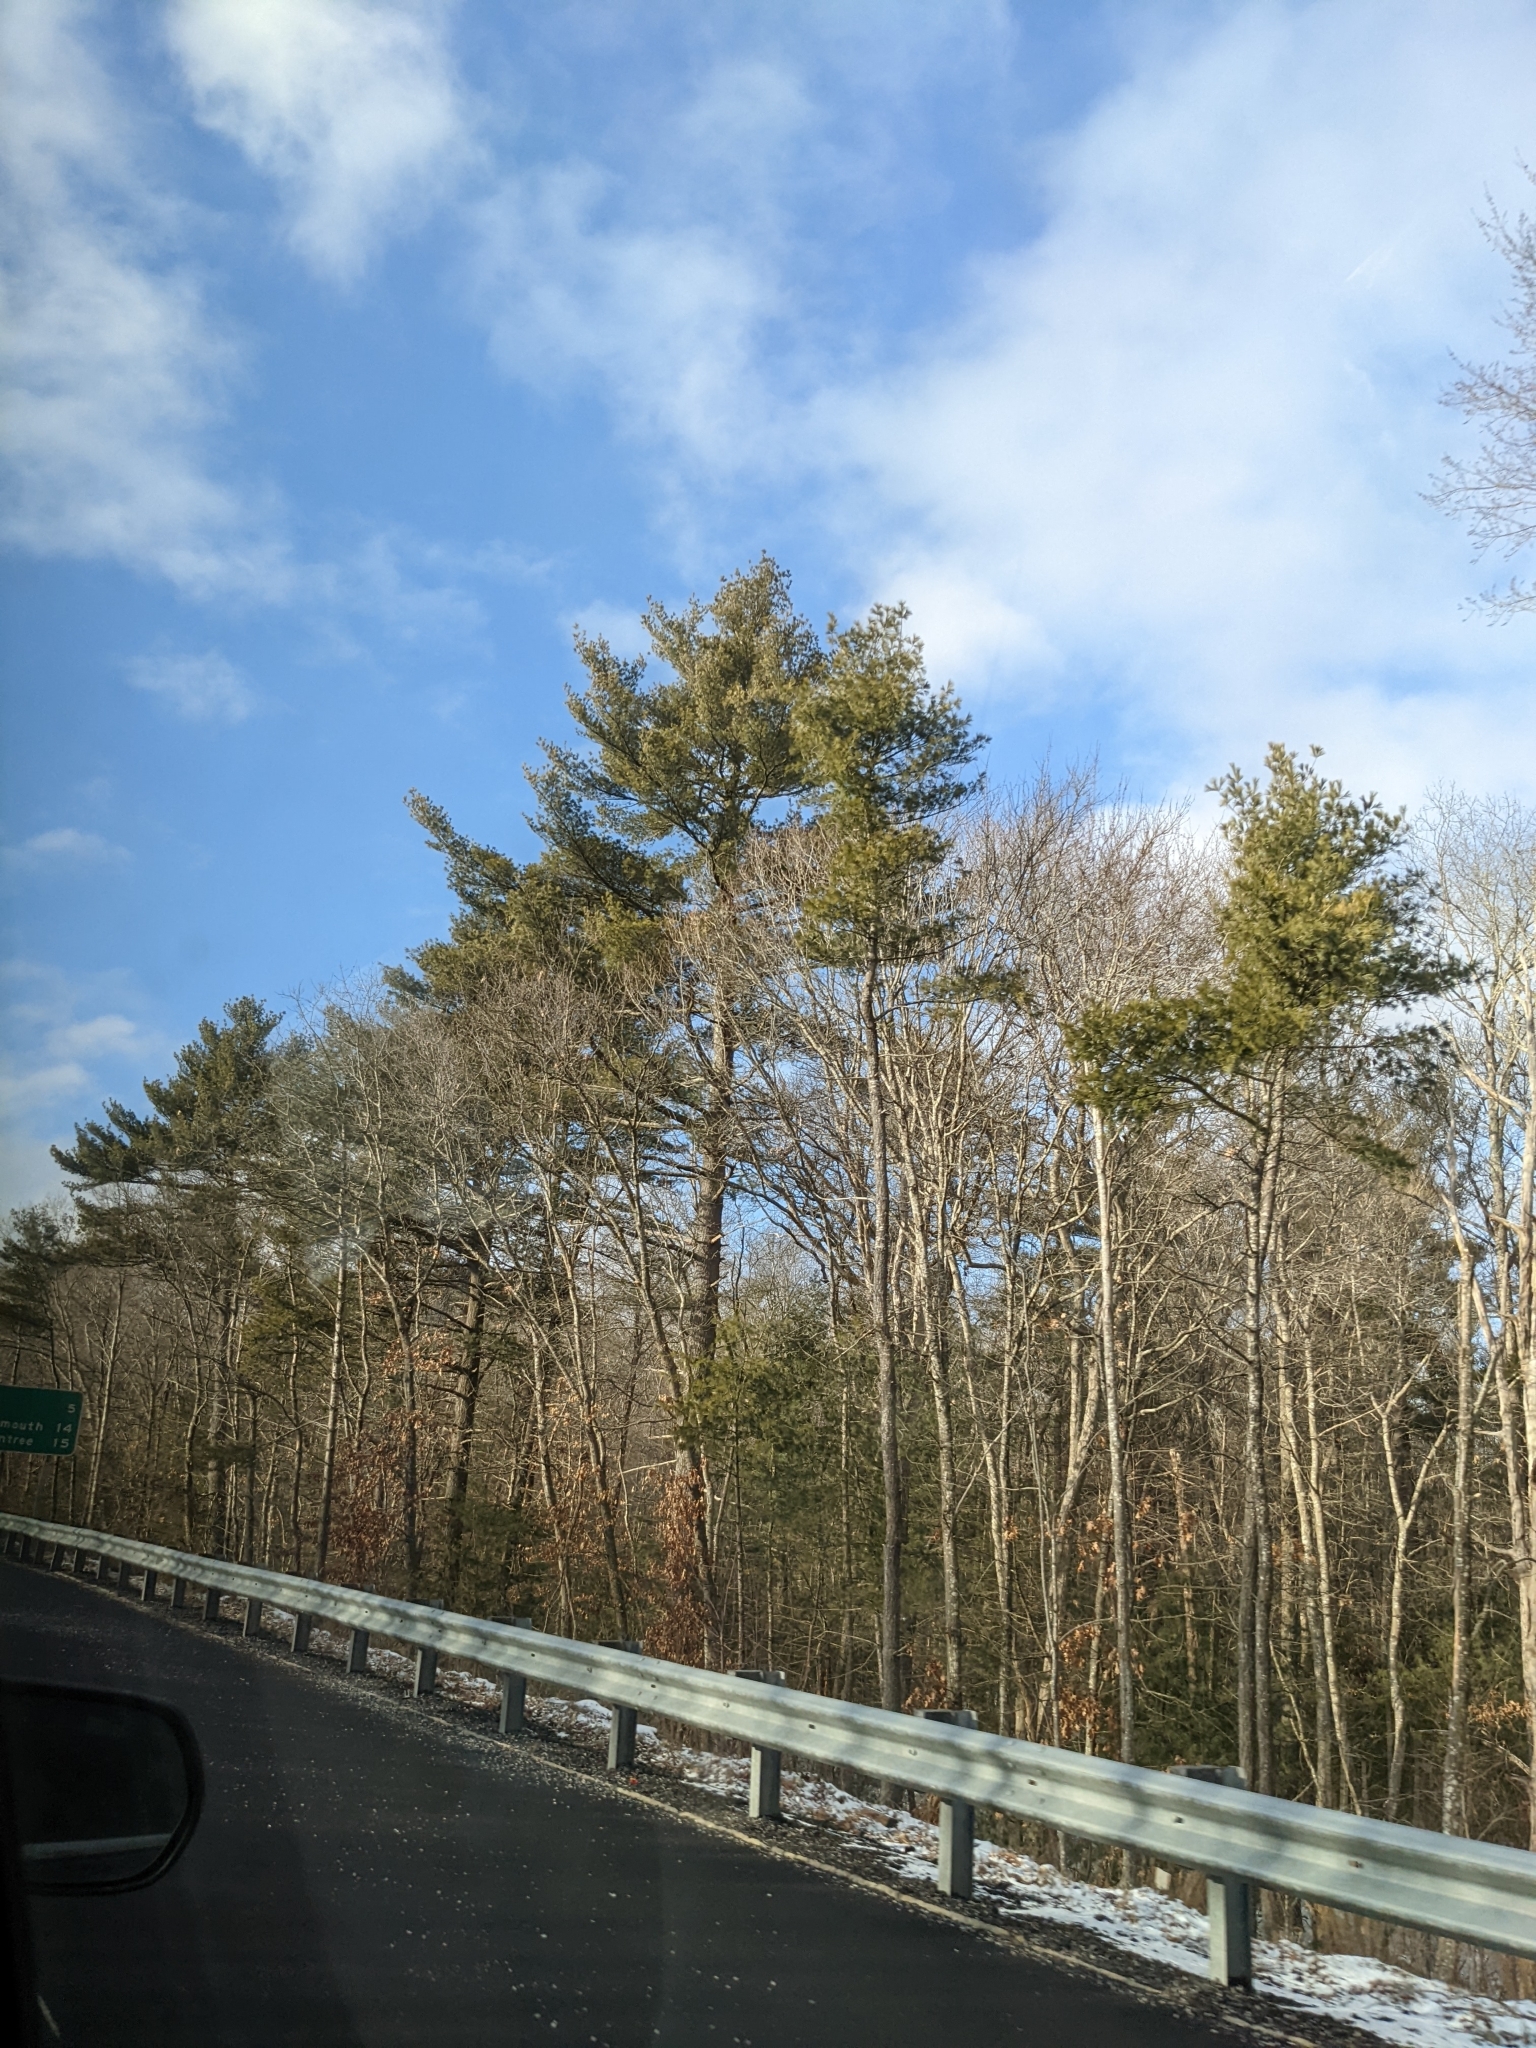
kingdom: Plantae
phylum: Tracheophyta
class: Pinopsida
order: Pinales
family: Pinaceae
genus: Pinus
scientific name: Pinus strobus
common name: Weymouth pine
